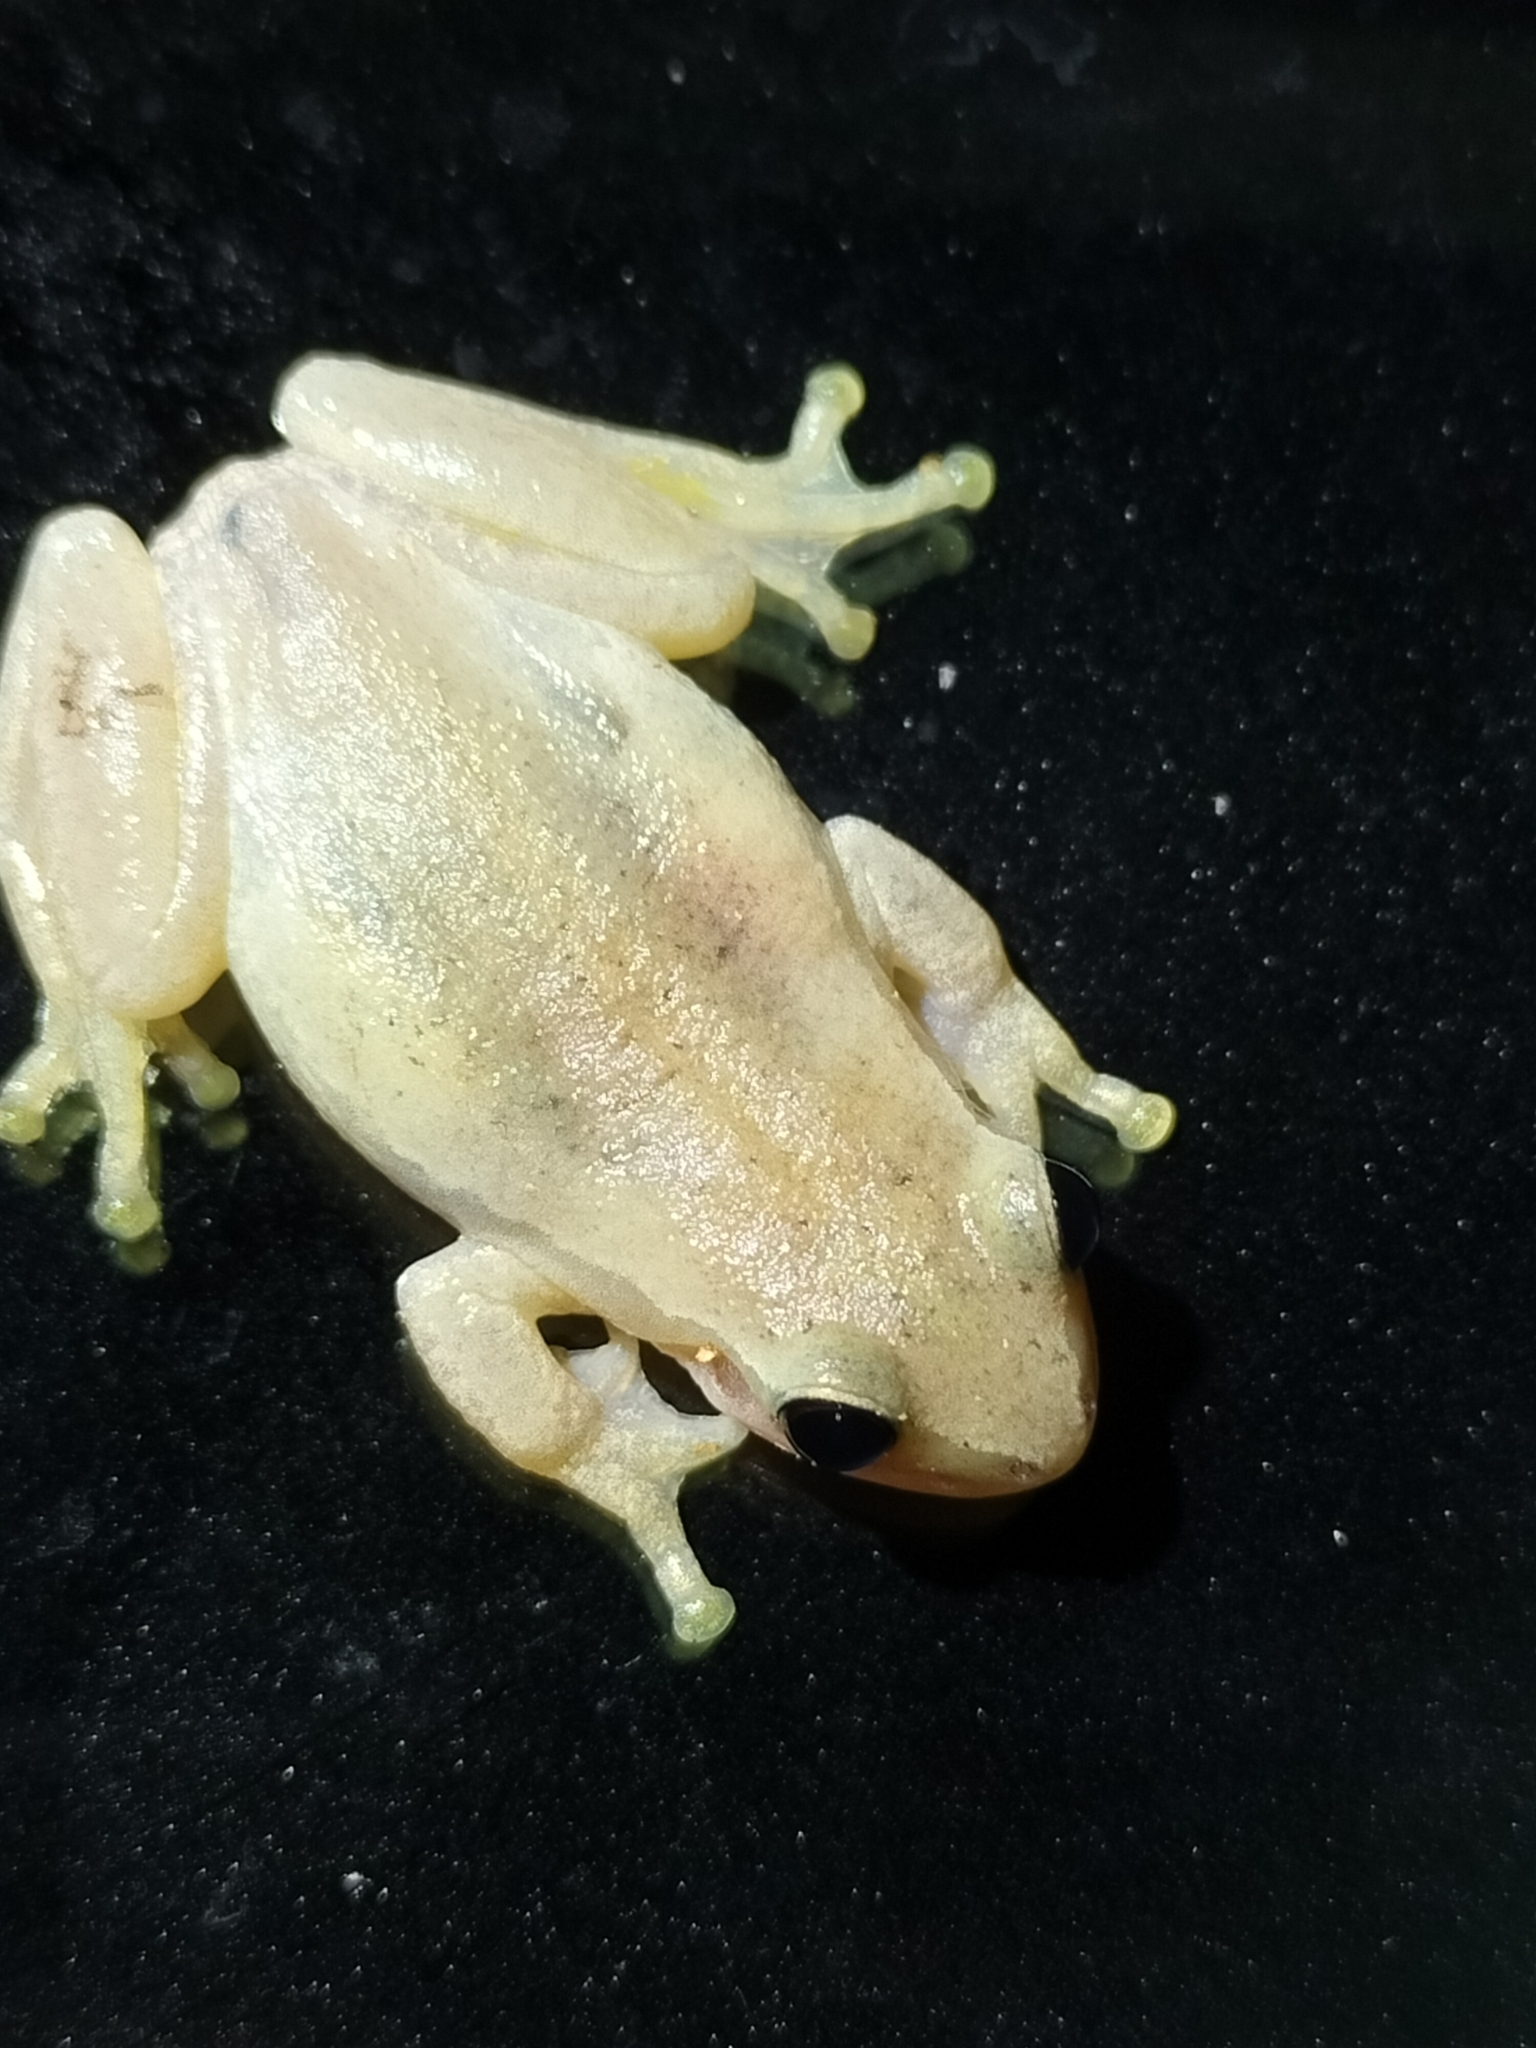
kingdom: Animalia
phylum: Chordata
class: Amphibia
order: Anura
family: Pelodryadidae
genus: Litoria
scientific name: Litoria rubella
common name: Desert tree frog
